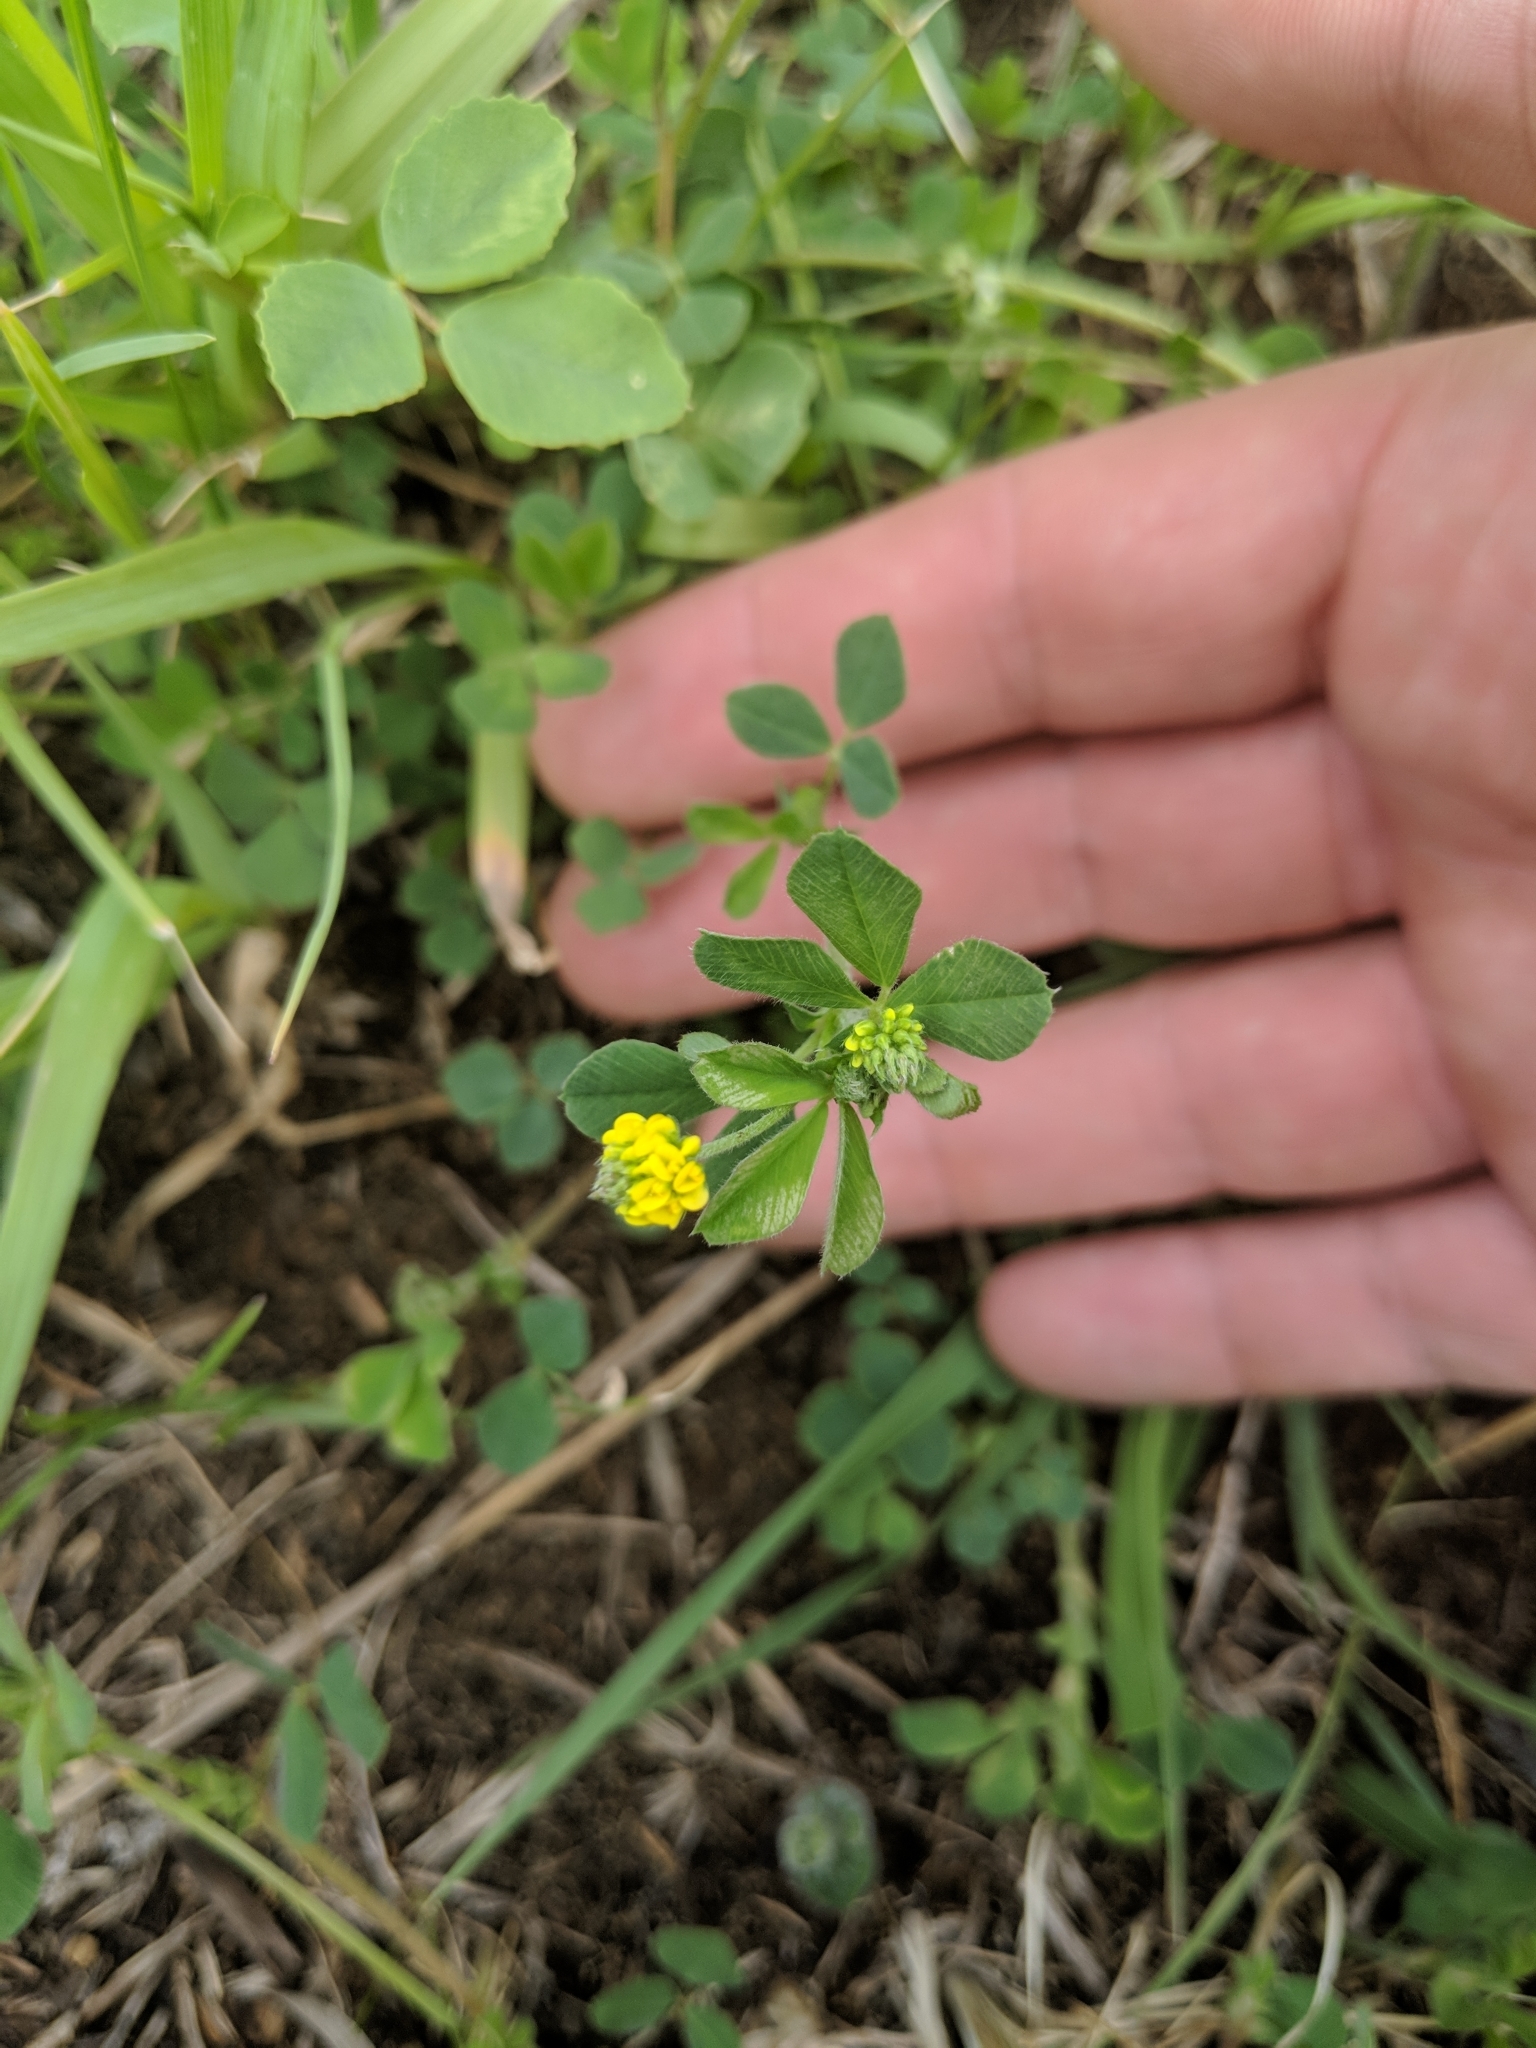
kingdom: Plantae
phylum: Tracheophyta
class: Magnoliopsida
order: Fabales
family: Fabaceae
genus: Medicago
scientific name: Medicago lupulina
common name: Black medick
